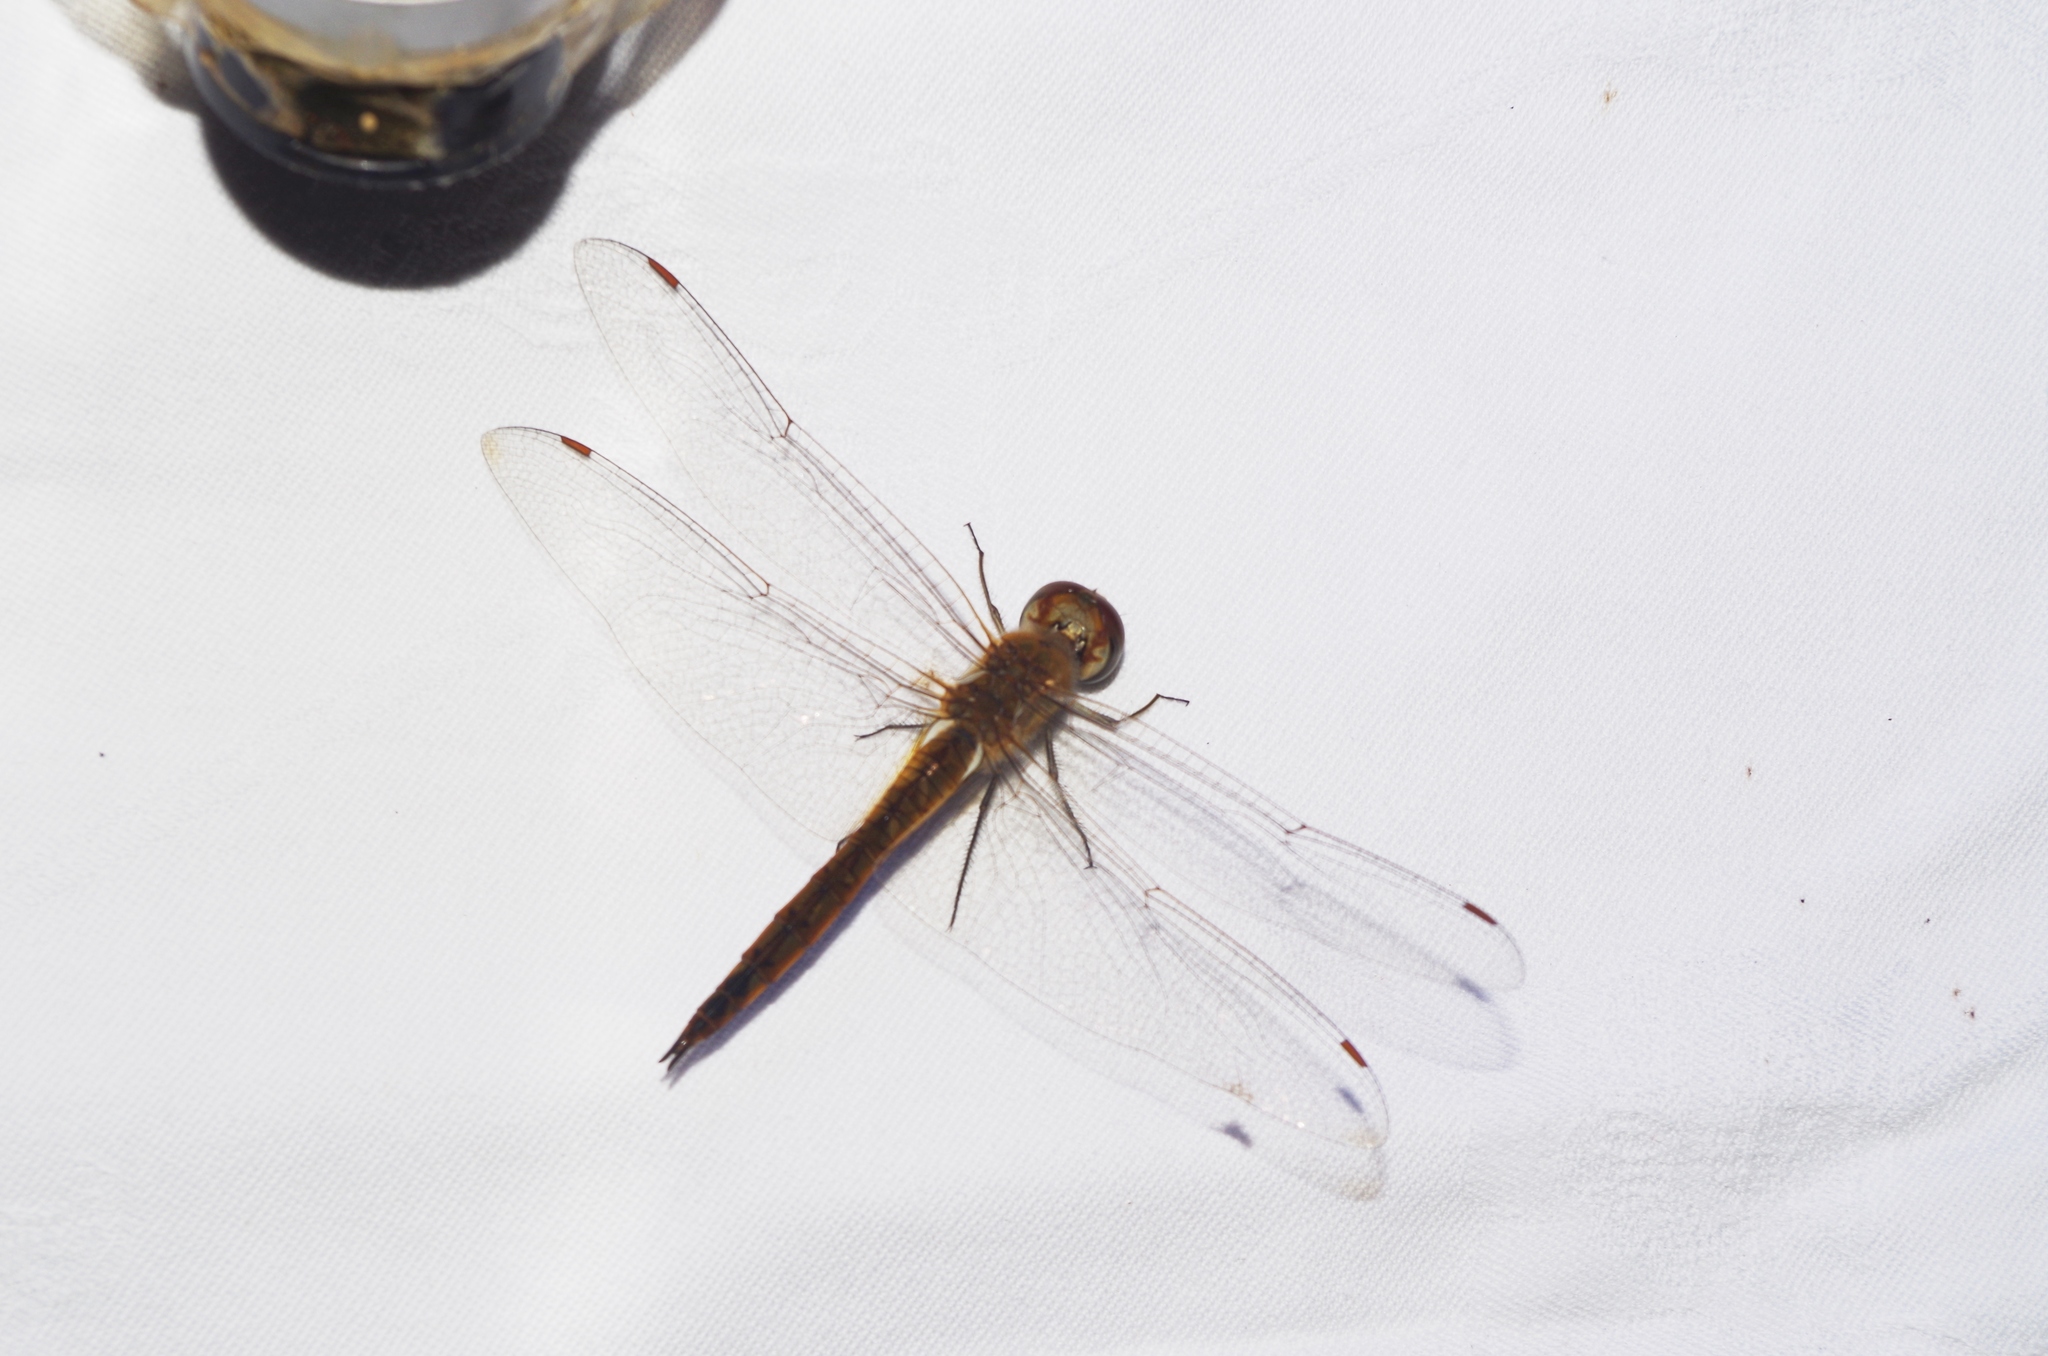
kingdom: Animalia
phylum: Arthropoda
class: Insecta
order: Odonata
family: Libellulidae
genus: Pantala
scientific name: Pantala flavescens
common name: Wandering glider
